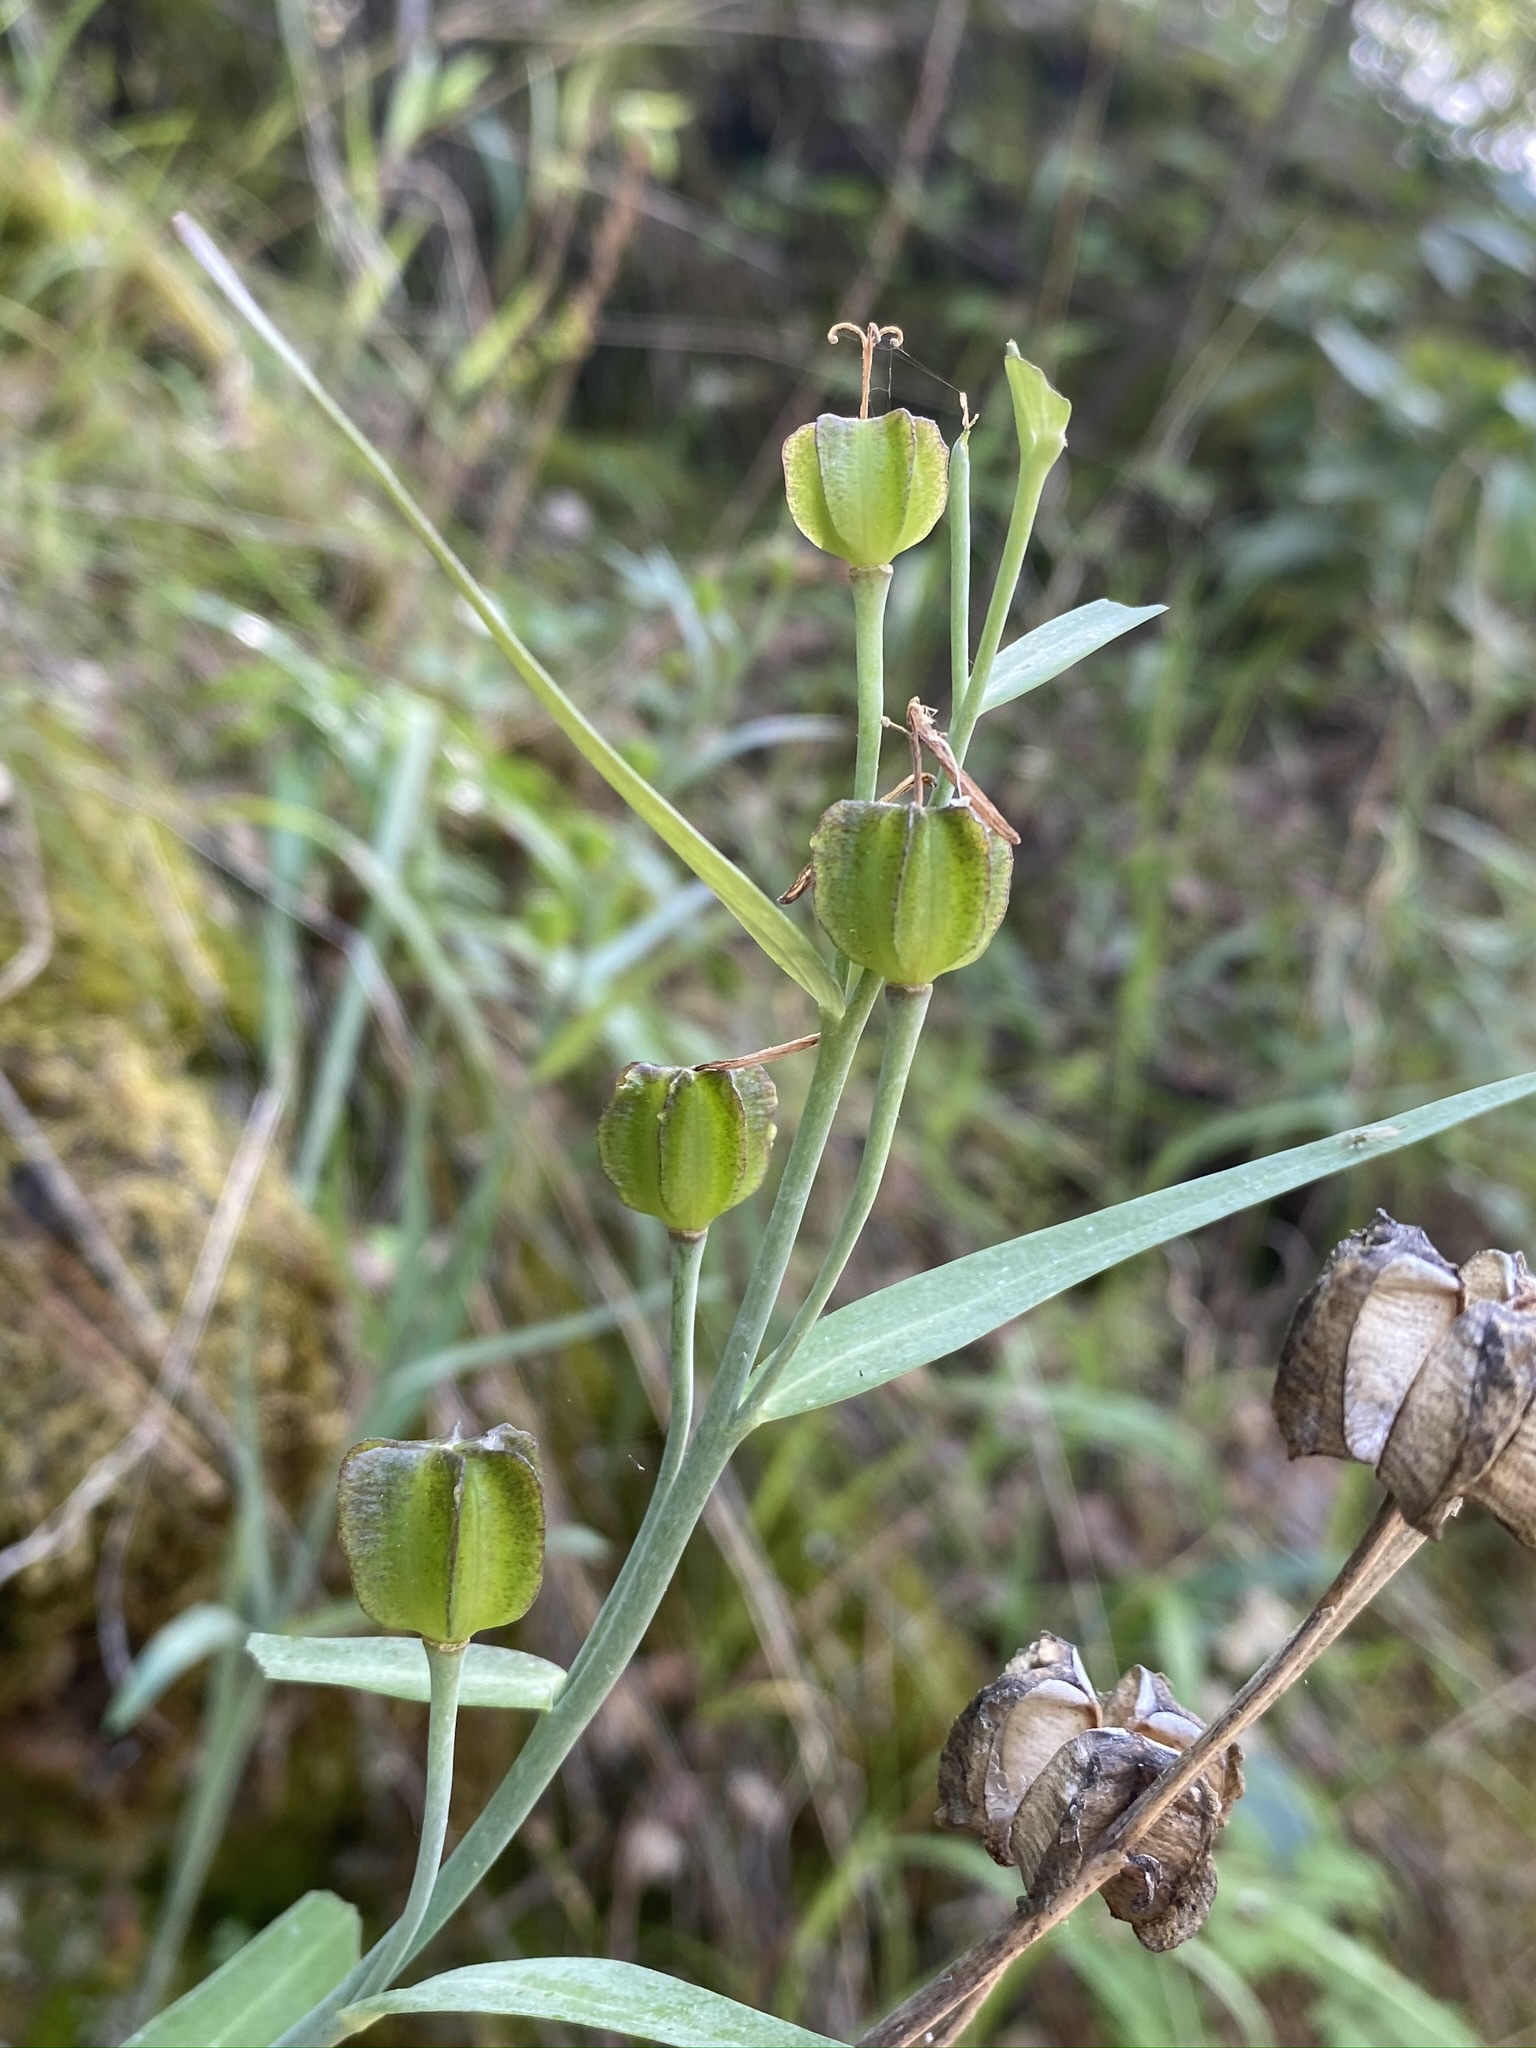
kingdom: Plantae
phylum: Tracheophyta
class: Liliopsida
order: Liliales
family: Liliaceae
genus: Fritillaria
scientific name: Fritillaria eastwoodiae
